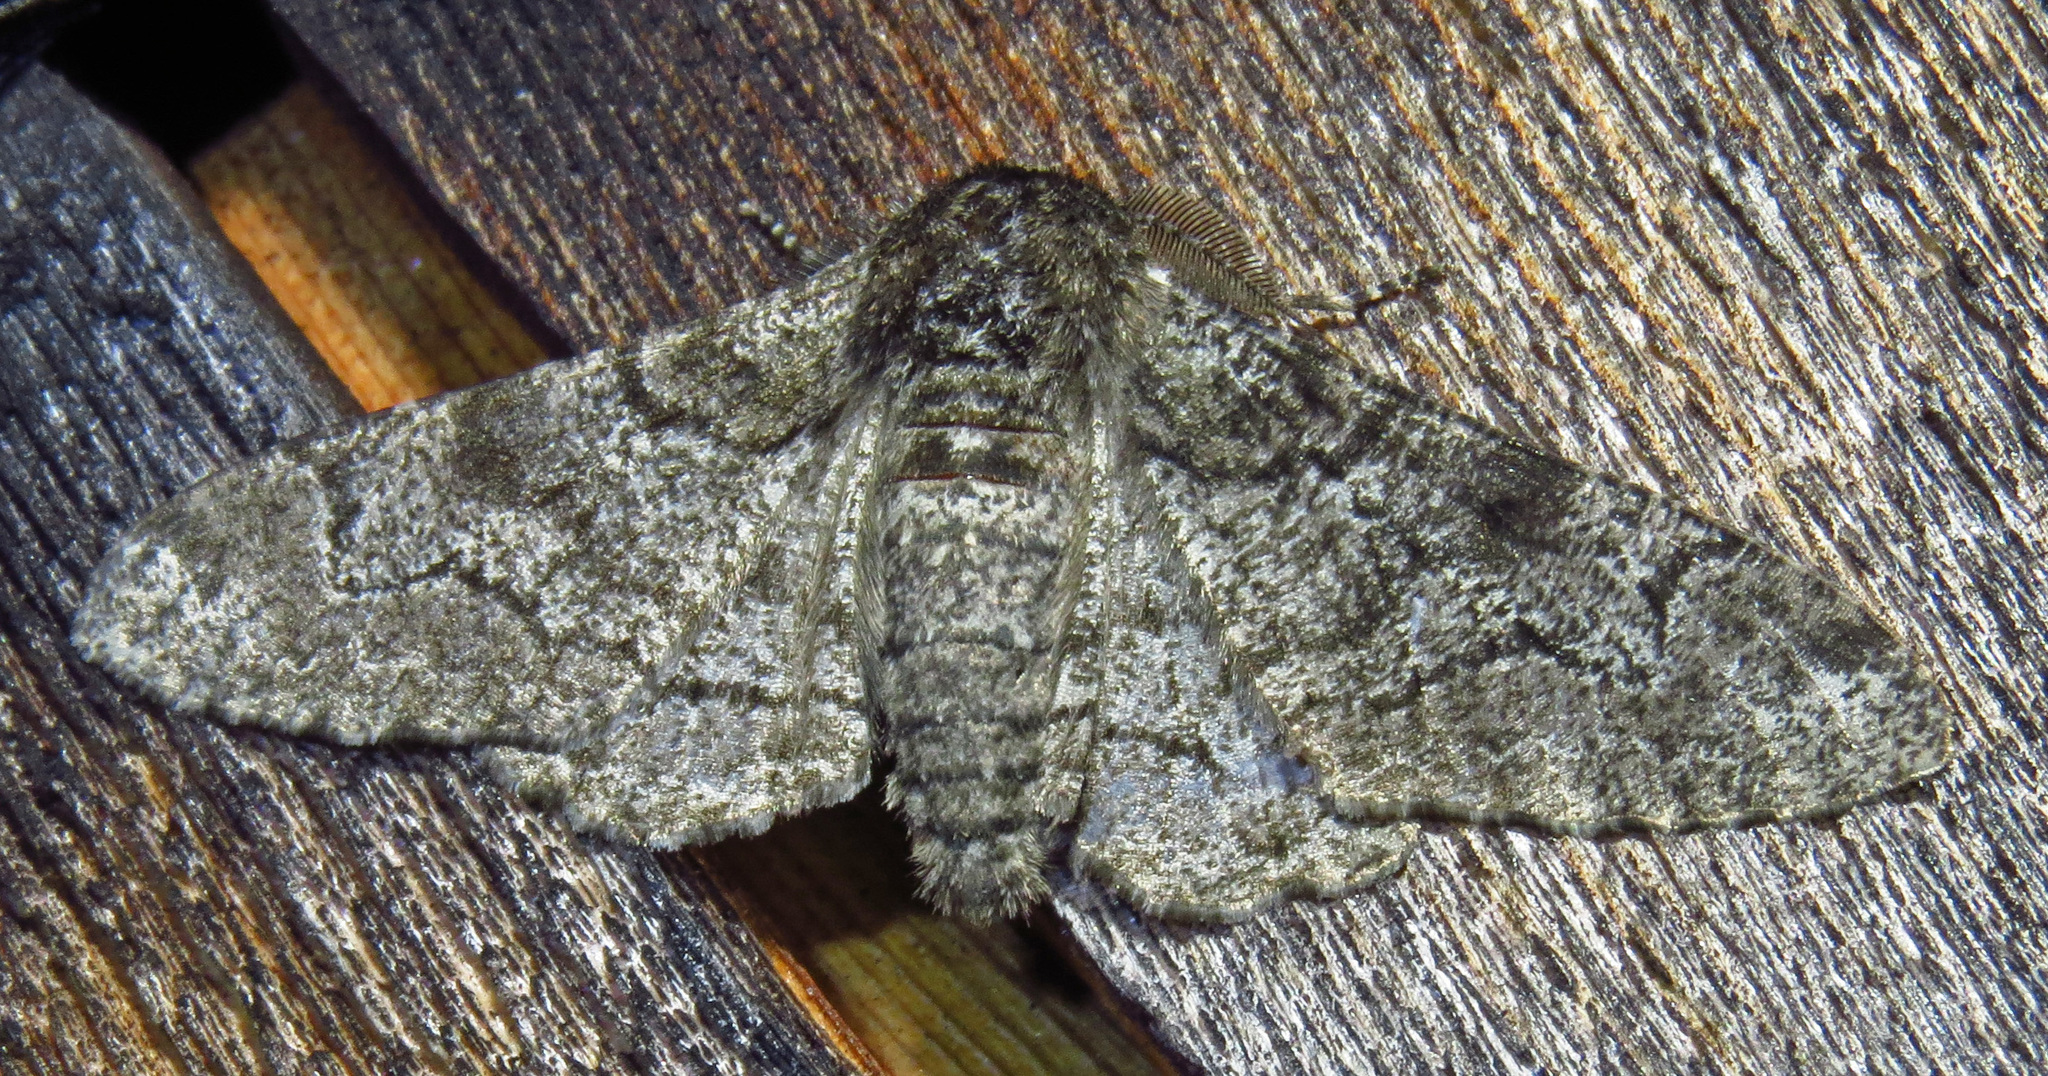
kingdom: Animalia
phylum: Arthropoda
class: Insecta
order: Lepidoptera
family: Geometridae
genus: Biston
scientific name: Biston betularia
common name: Peppered moth
